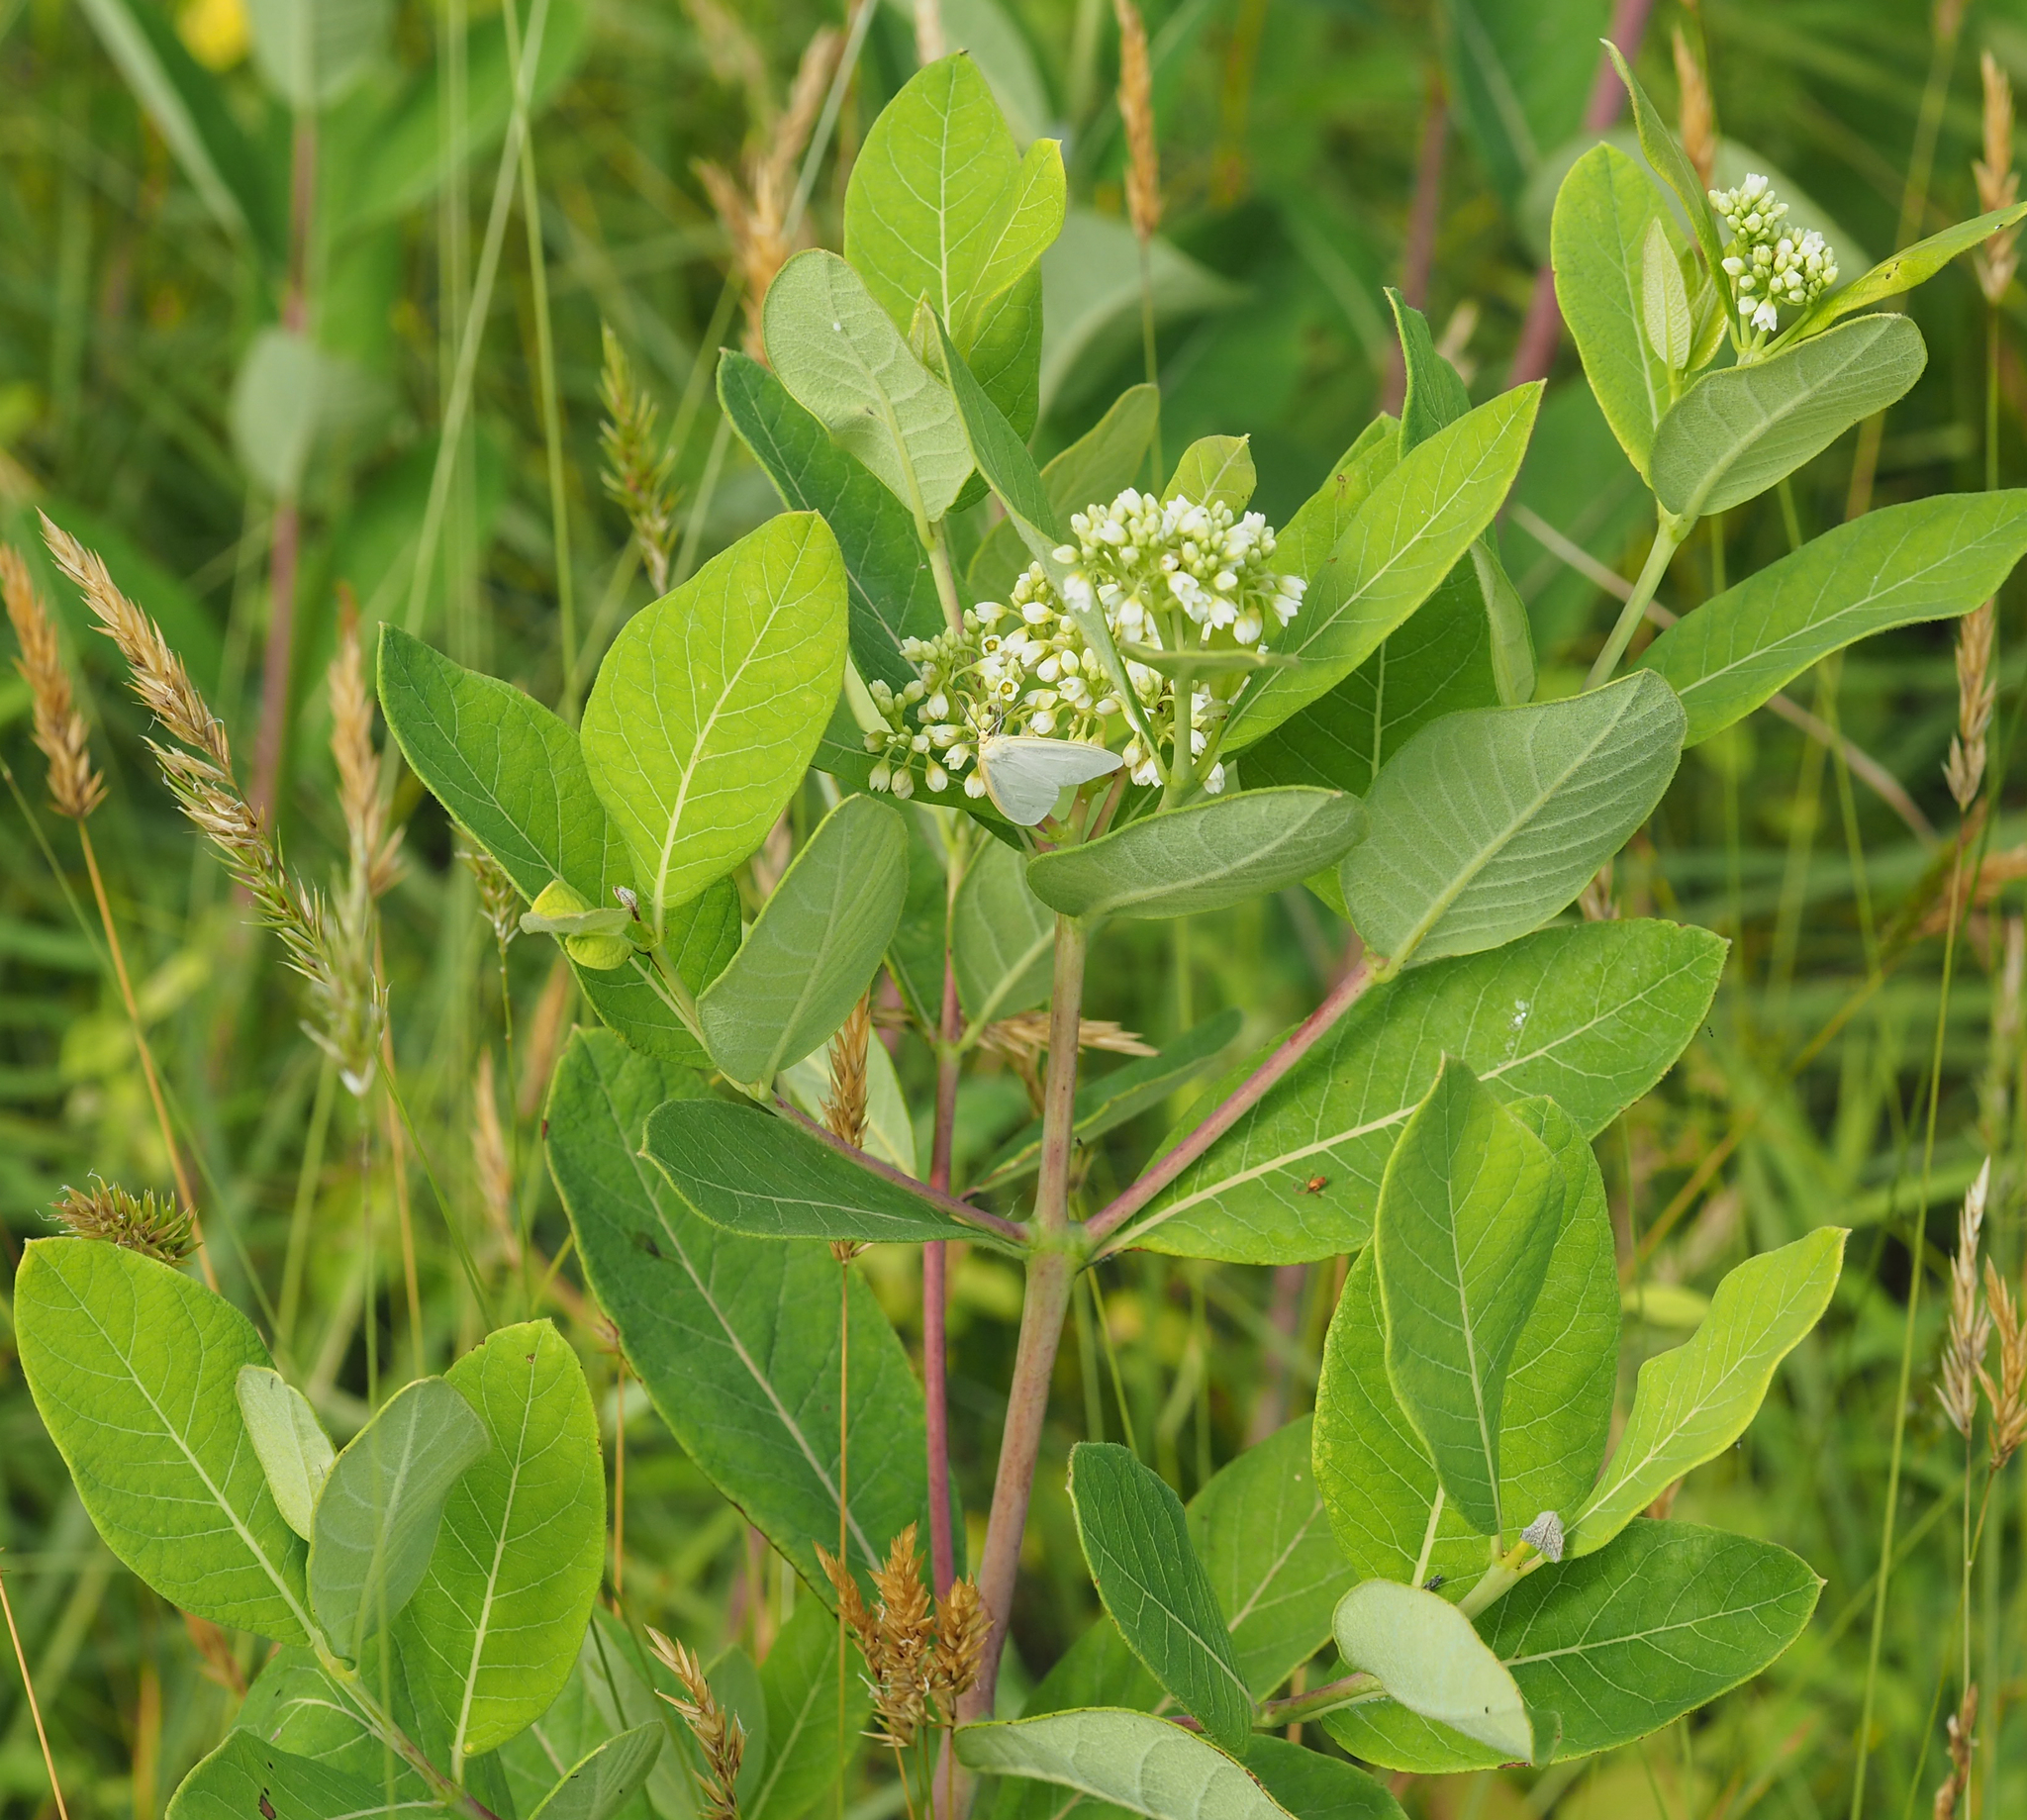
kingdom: Plantae
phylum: Tracheophyta
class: Magnoliopsida
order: Gentianales
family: Apocynaceae
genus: Apocynum
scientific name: Apocynum cannabinum
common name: Hemp dogbane
